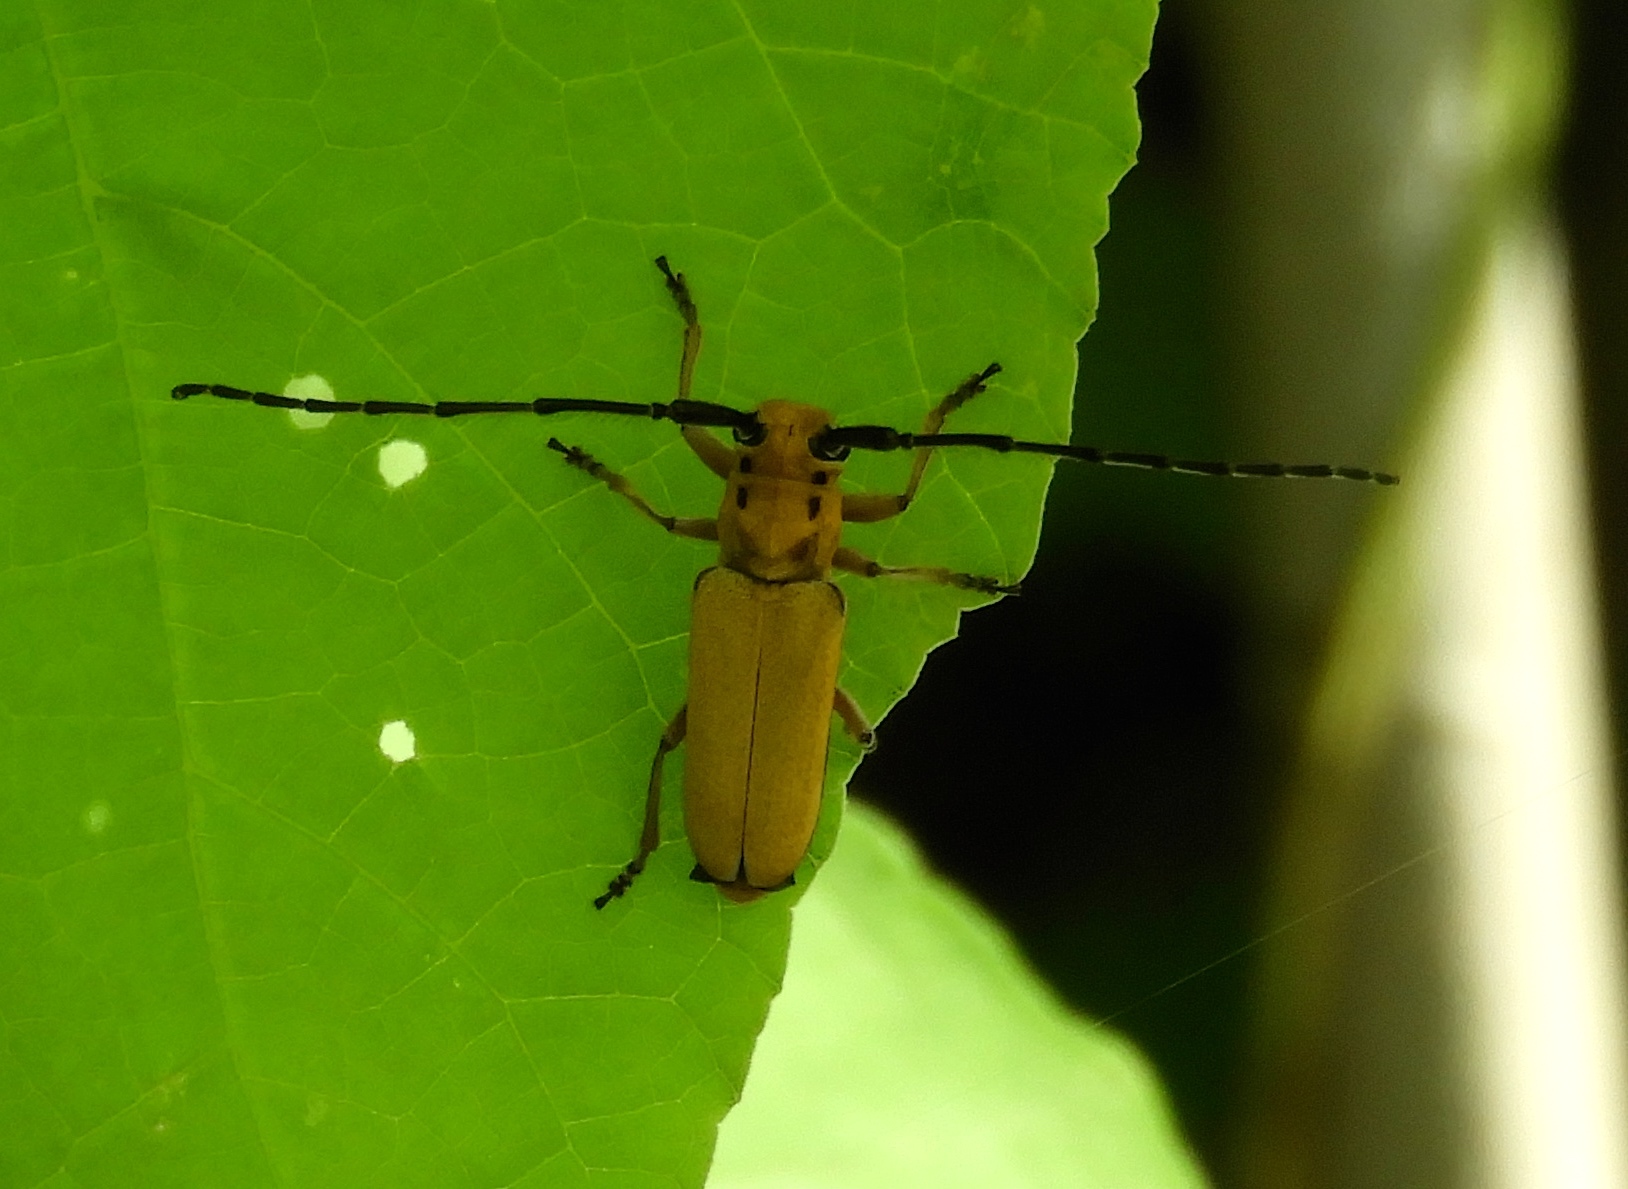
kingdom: Animalia
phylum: Arthropoda
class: Insecta
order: Coleoptera
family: Cerambycidae
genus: Essostrutha
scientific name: Essostrutha laeta
